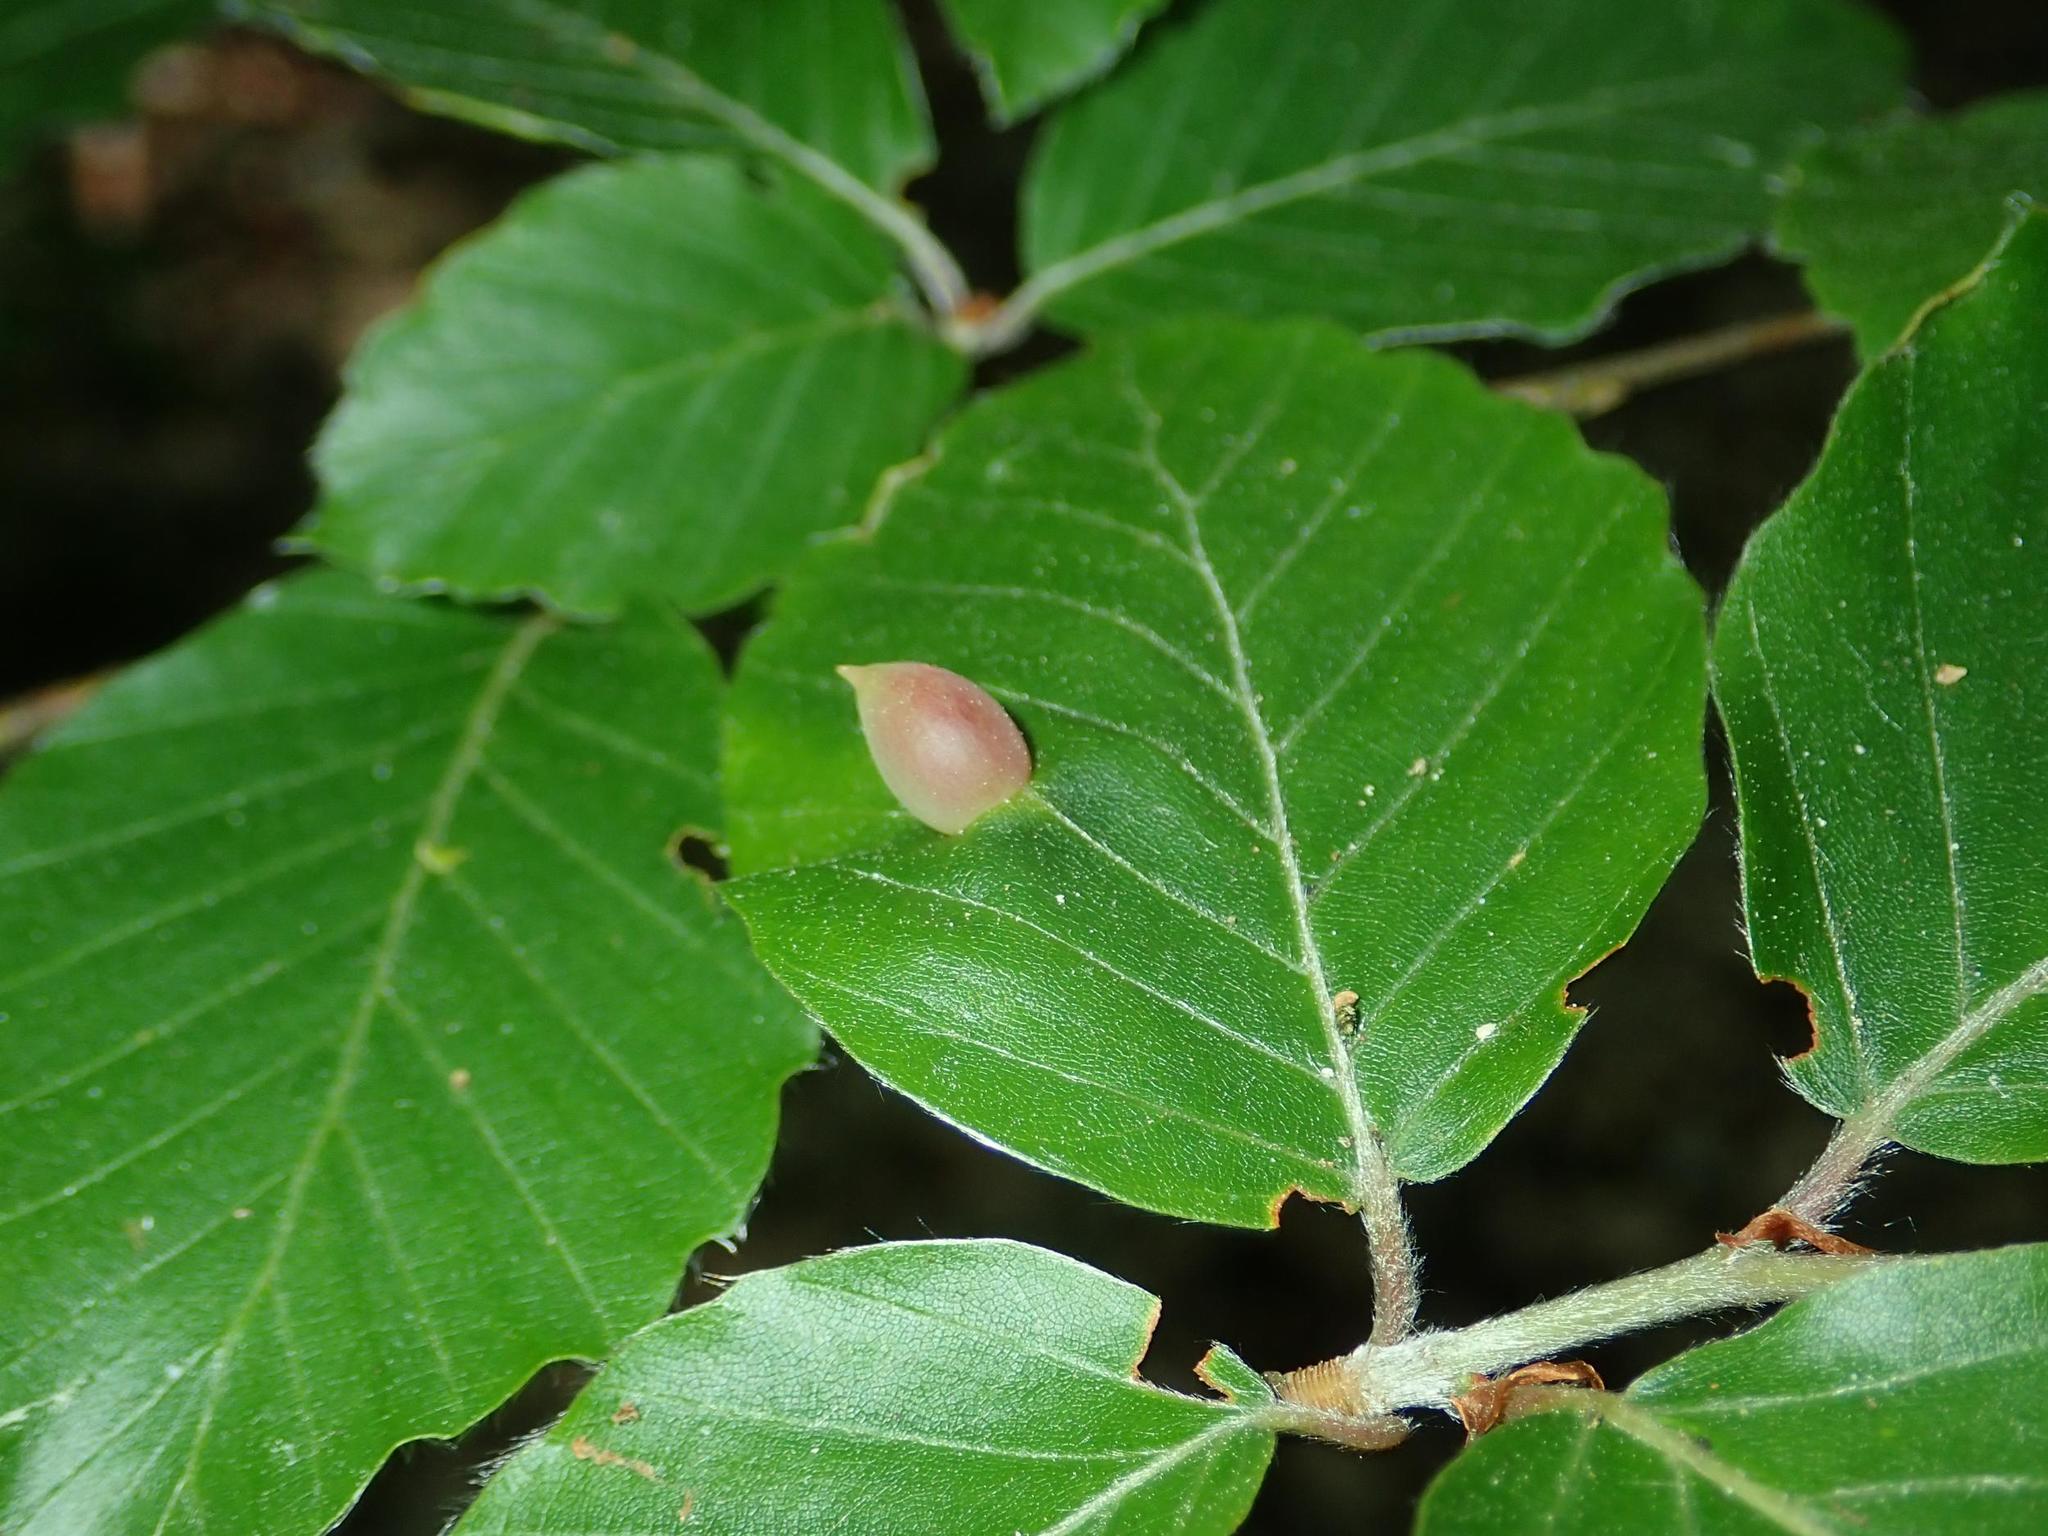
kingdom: Plantae
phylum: Tracheophyta
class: Magnoliopsida
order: Fagales
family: Fagaceae
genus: Fagus
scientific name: Fagus sylvatica
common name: Beech
